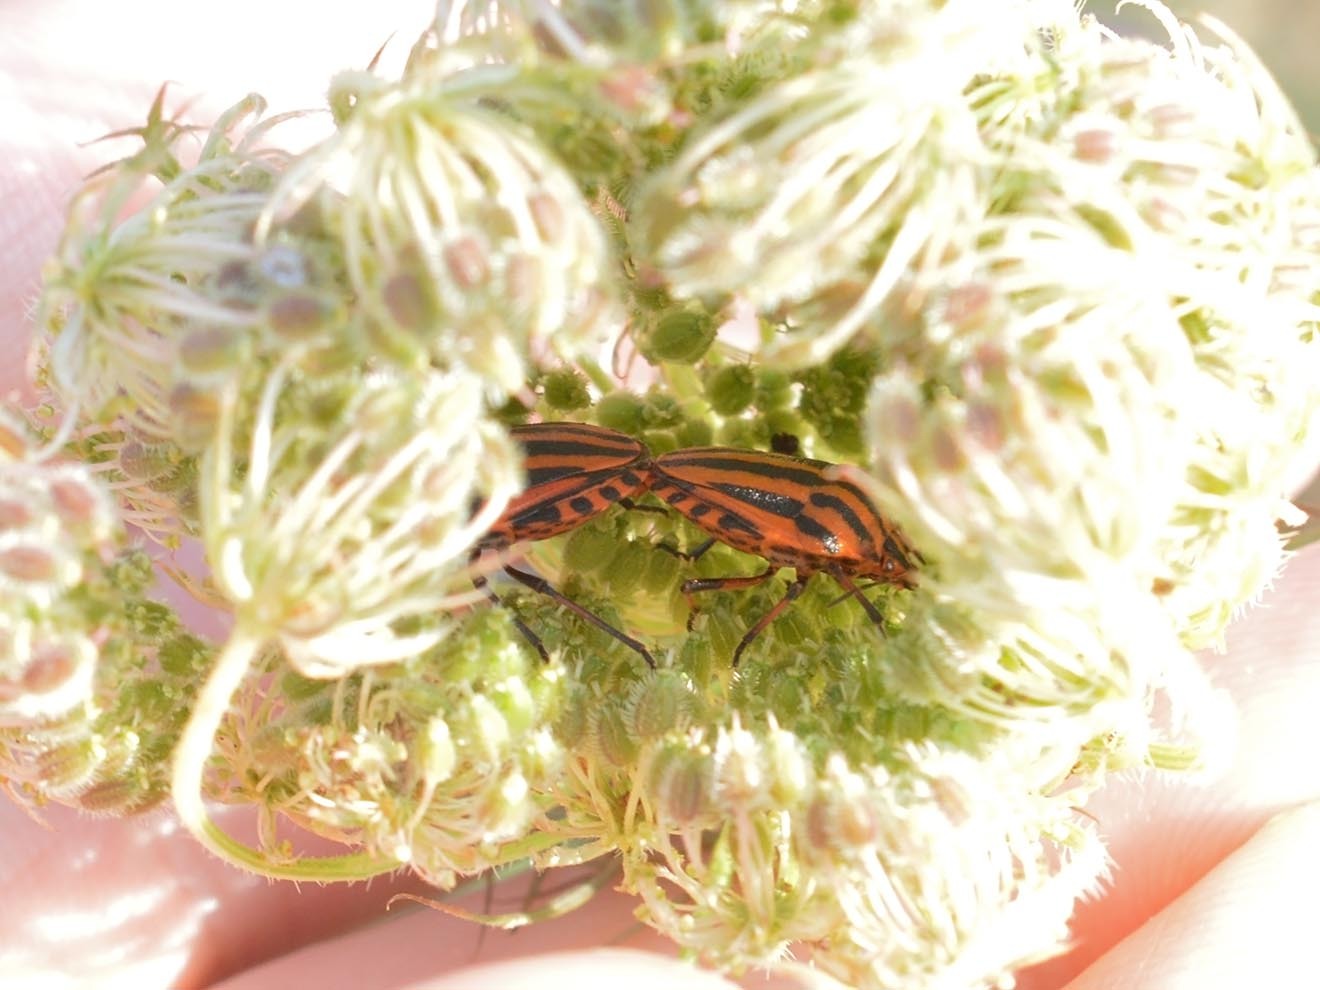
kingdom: Animalia
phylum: Arthropoda
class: Insecta
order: Hemiptera
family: Pentatomidae
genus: Graphosoma
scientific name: Graphosoma italicum
